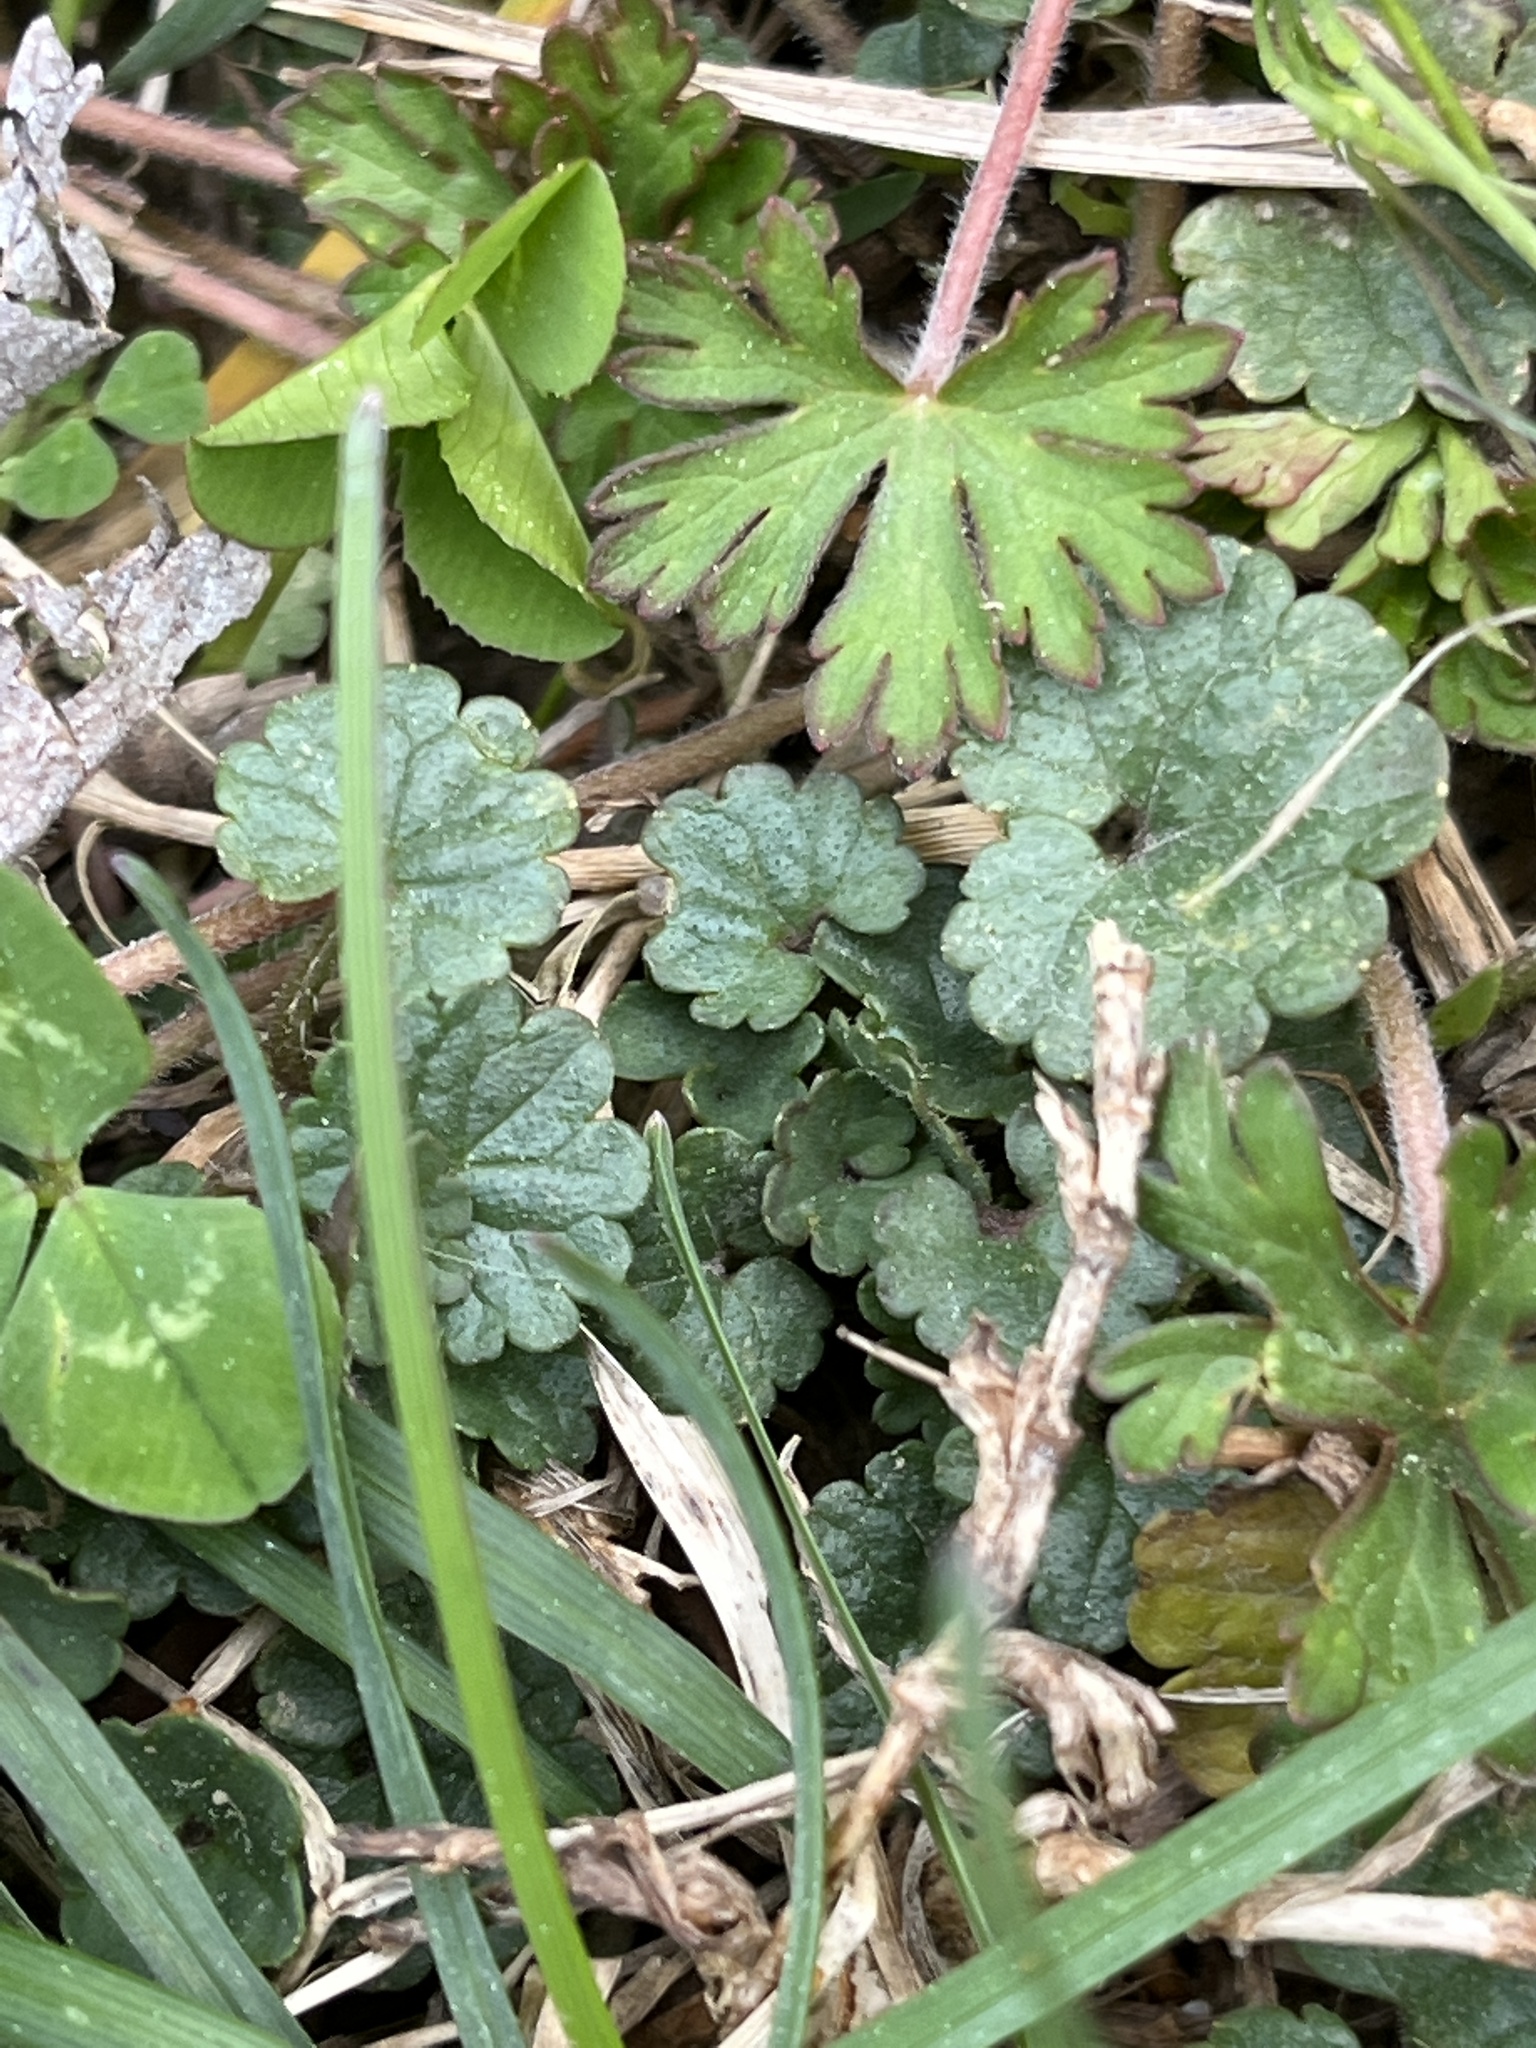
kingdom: Plantae
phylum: Tracheophyta
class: Magnoliopsida
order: Lamiales
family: Lamiaceae
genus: Glechoma
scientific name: Glechoma hederacea
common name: Ground ivy
